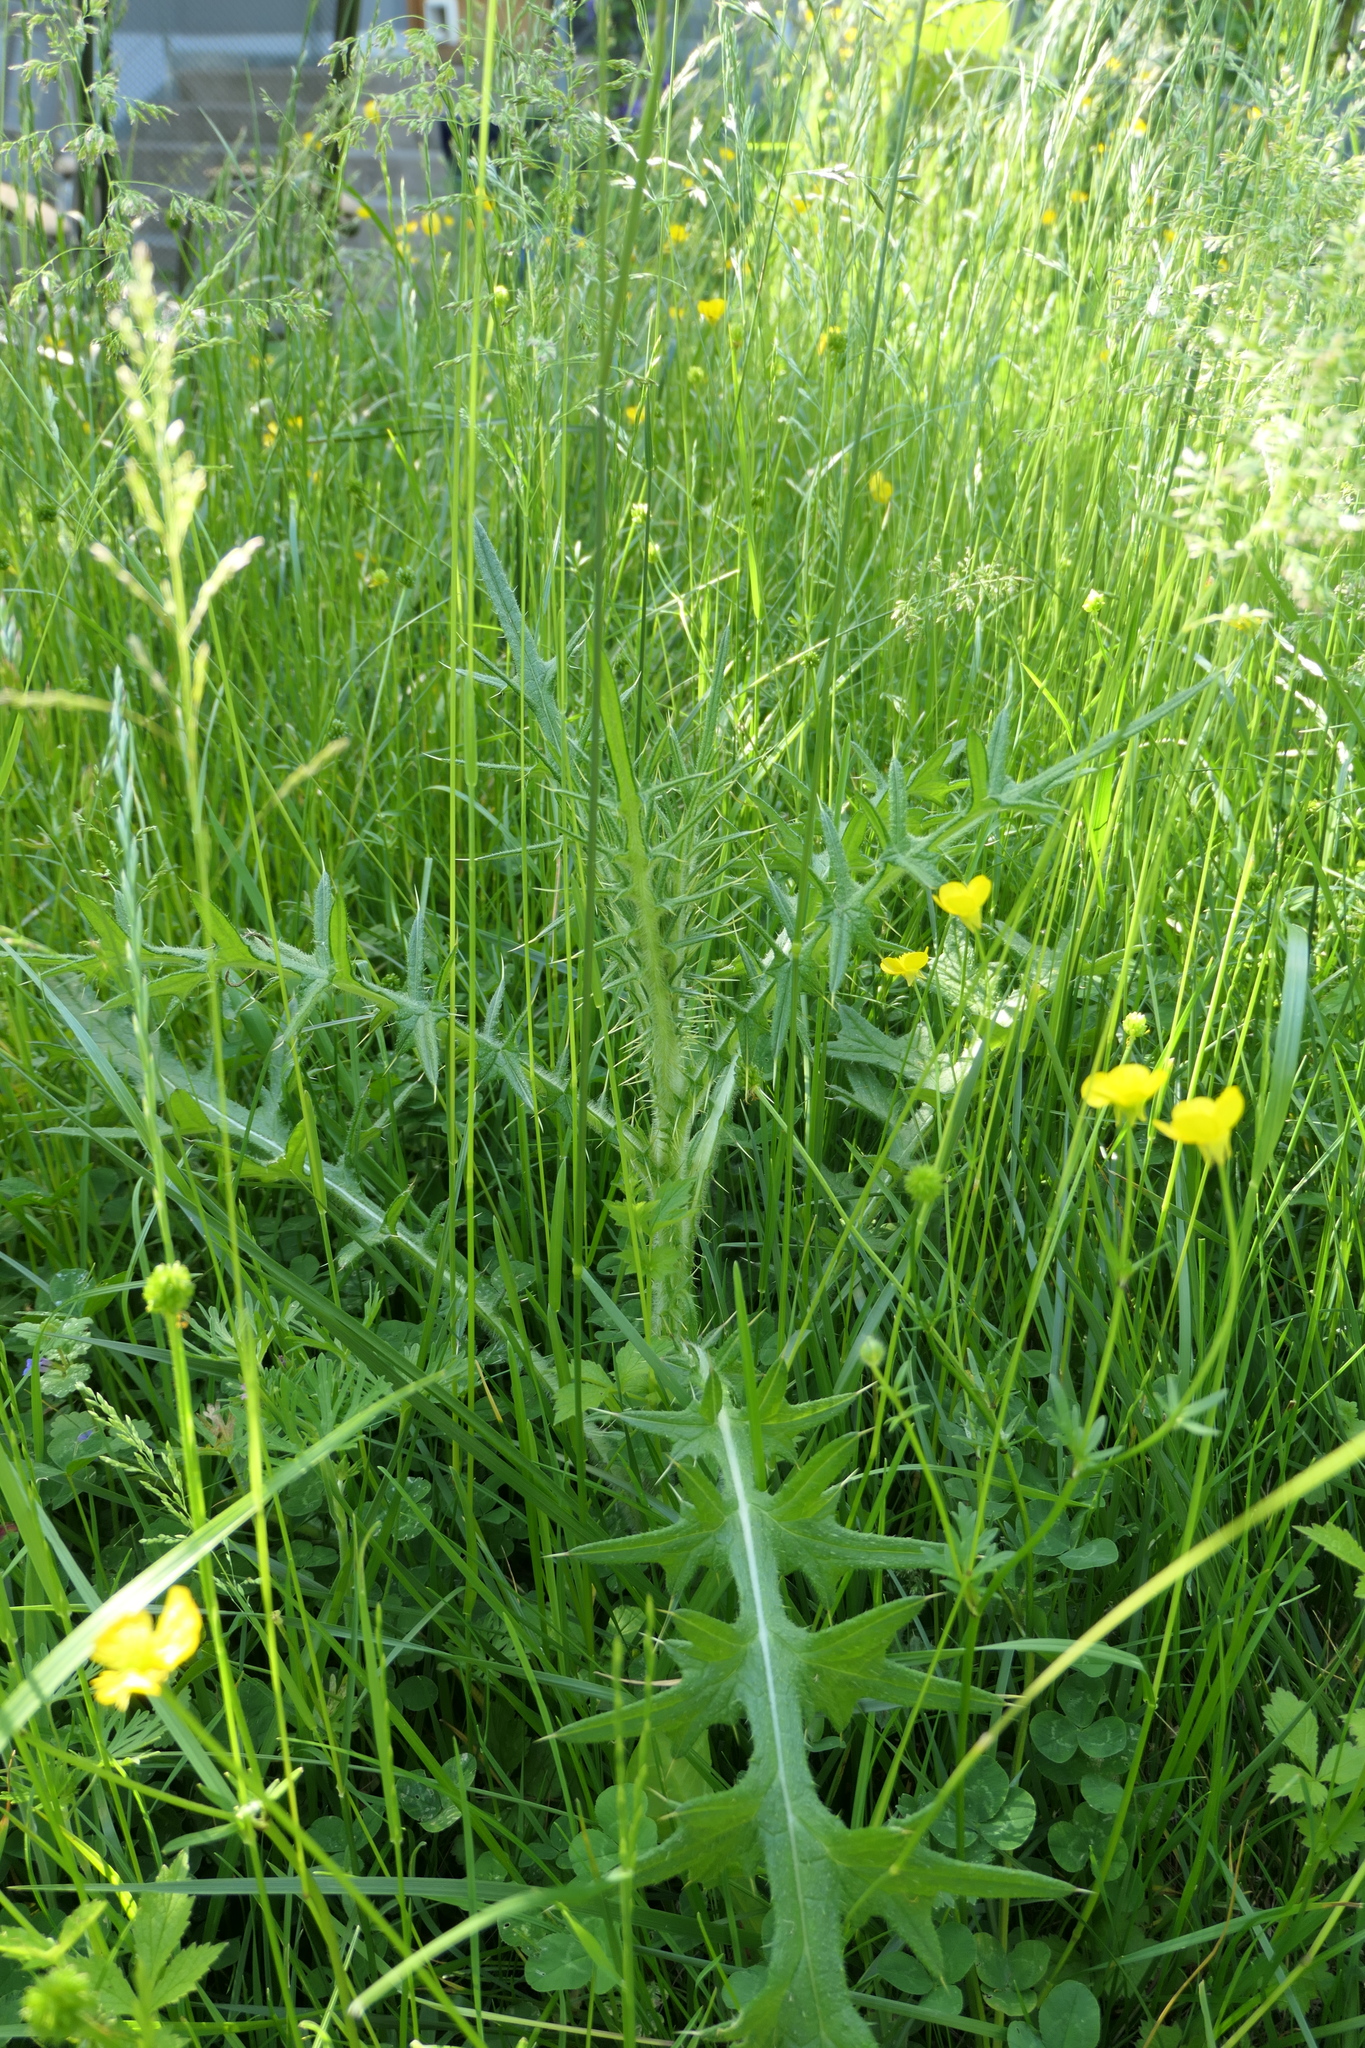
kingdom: Plantae
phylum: Tracheophyta
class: Magnoliopsida
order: Asterales
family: Asteraceae
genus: Cirsium
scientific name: Cirsium vulgare
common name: Bull thistle
